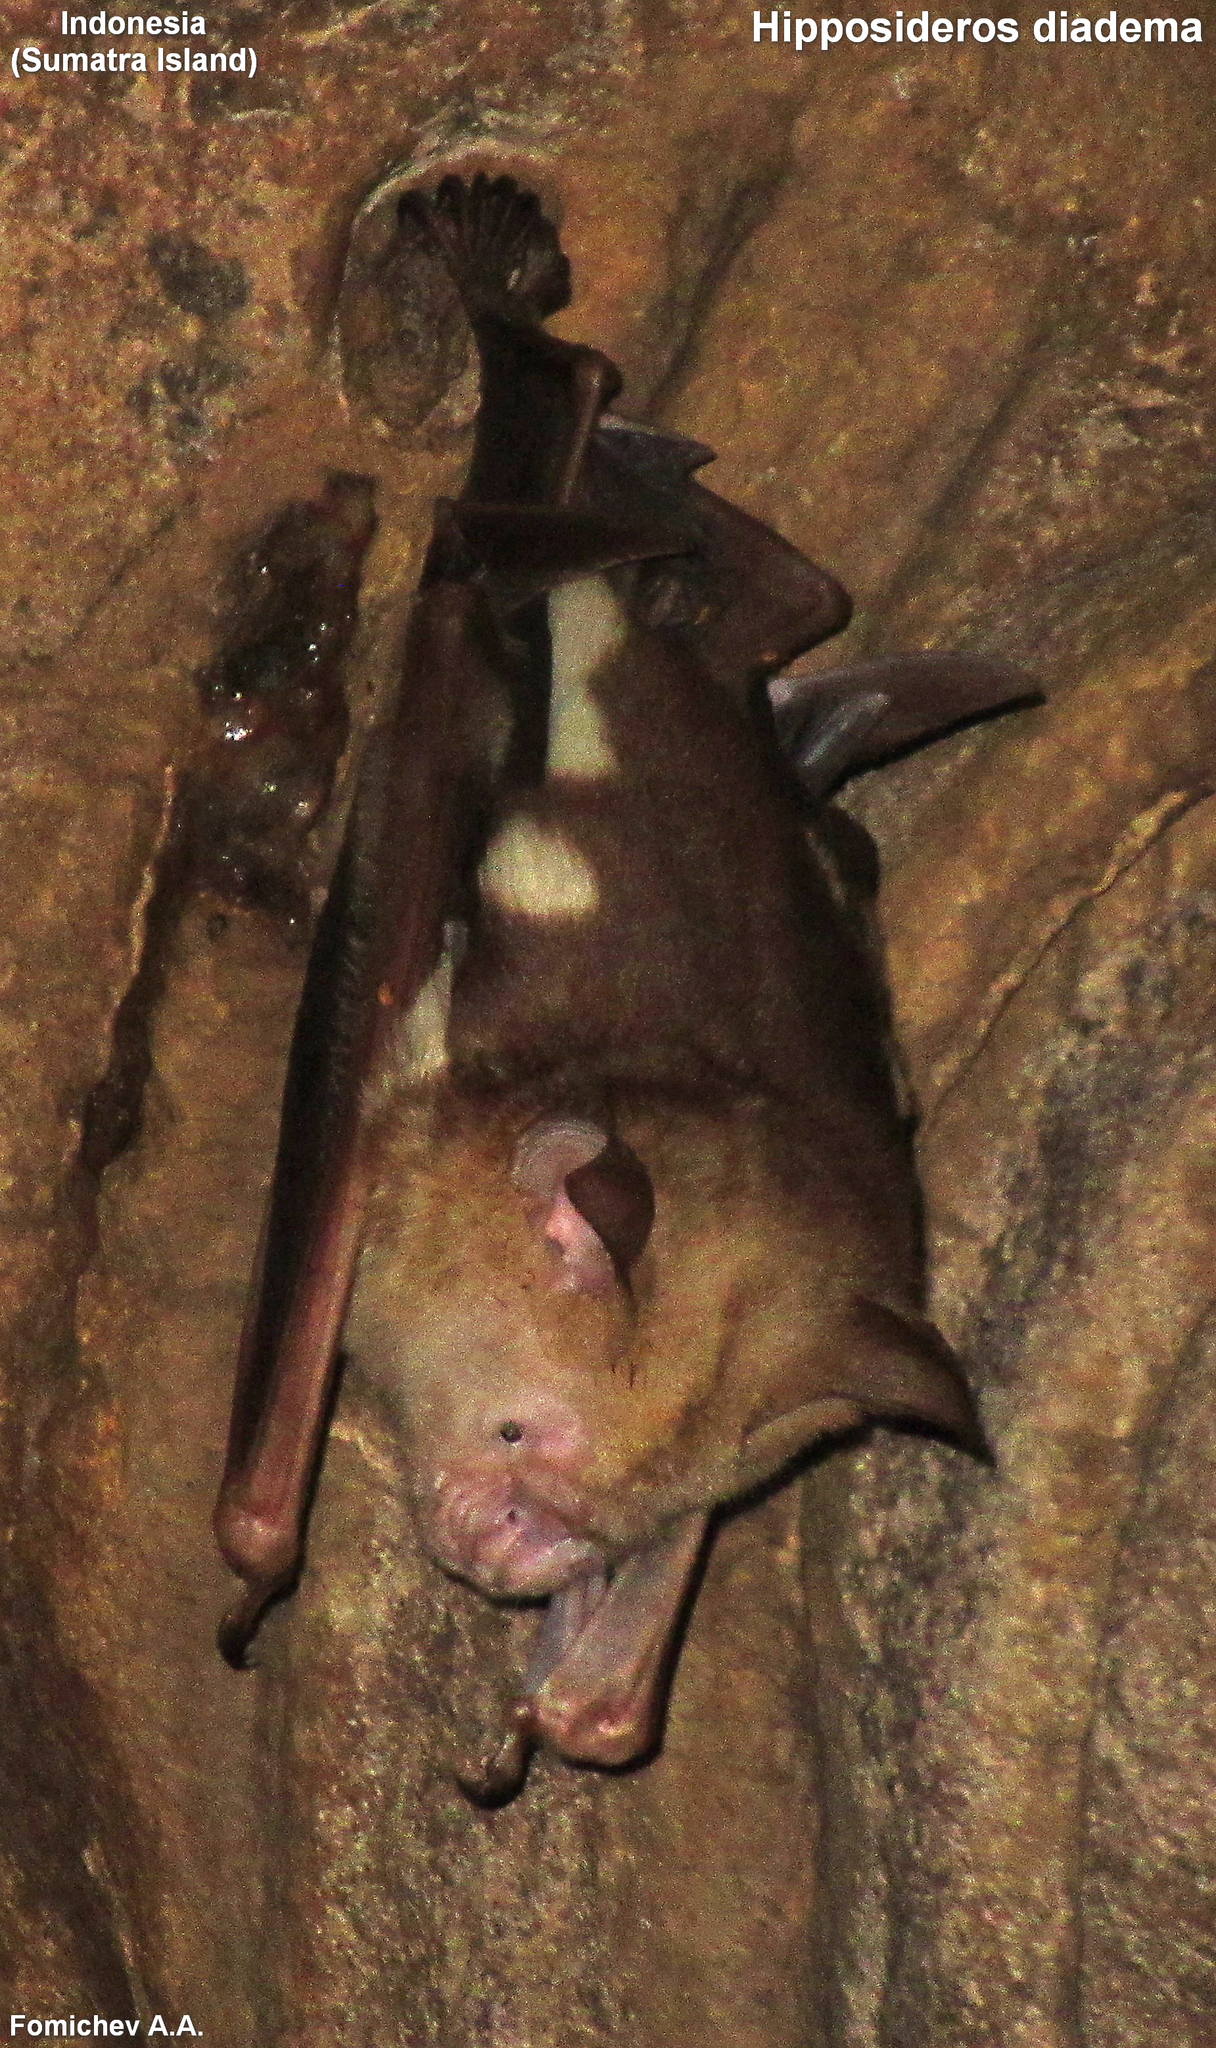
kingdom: Animalia
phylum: Chordata
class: Mammalia
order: Chiroptera
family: Hipposideridae
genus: Hipposideros
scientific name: Hipposideros diadema
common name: Diadem leaf-nosed bat
